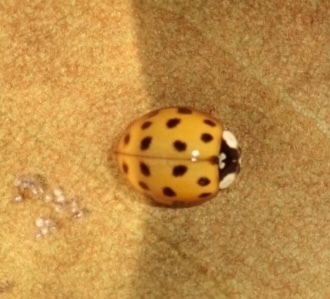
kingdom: Animalia
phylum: Arthropoda
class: Insecta
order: Coleoptera
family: Coccinellidae
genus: Harmonia
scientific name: Harmonia axyridis
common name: Harlequin ladybird
